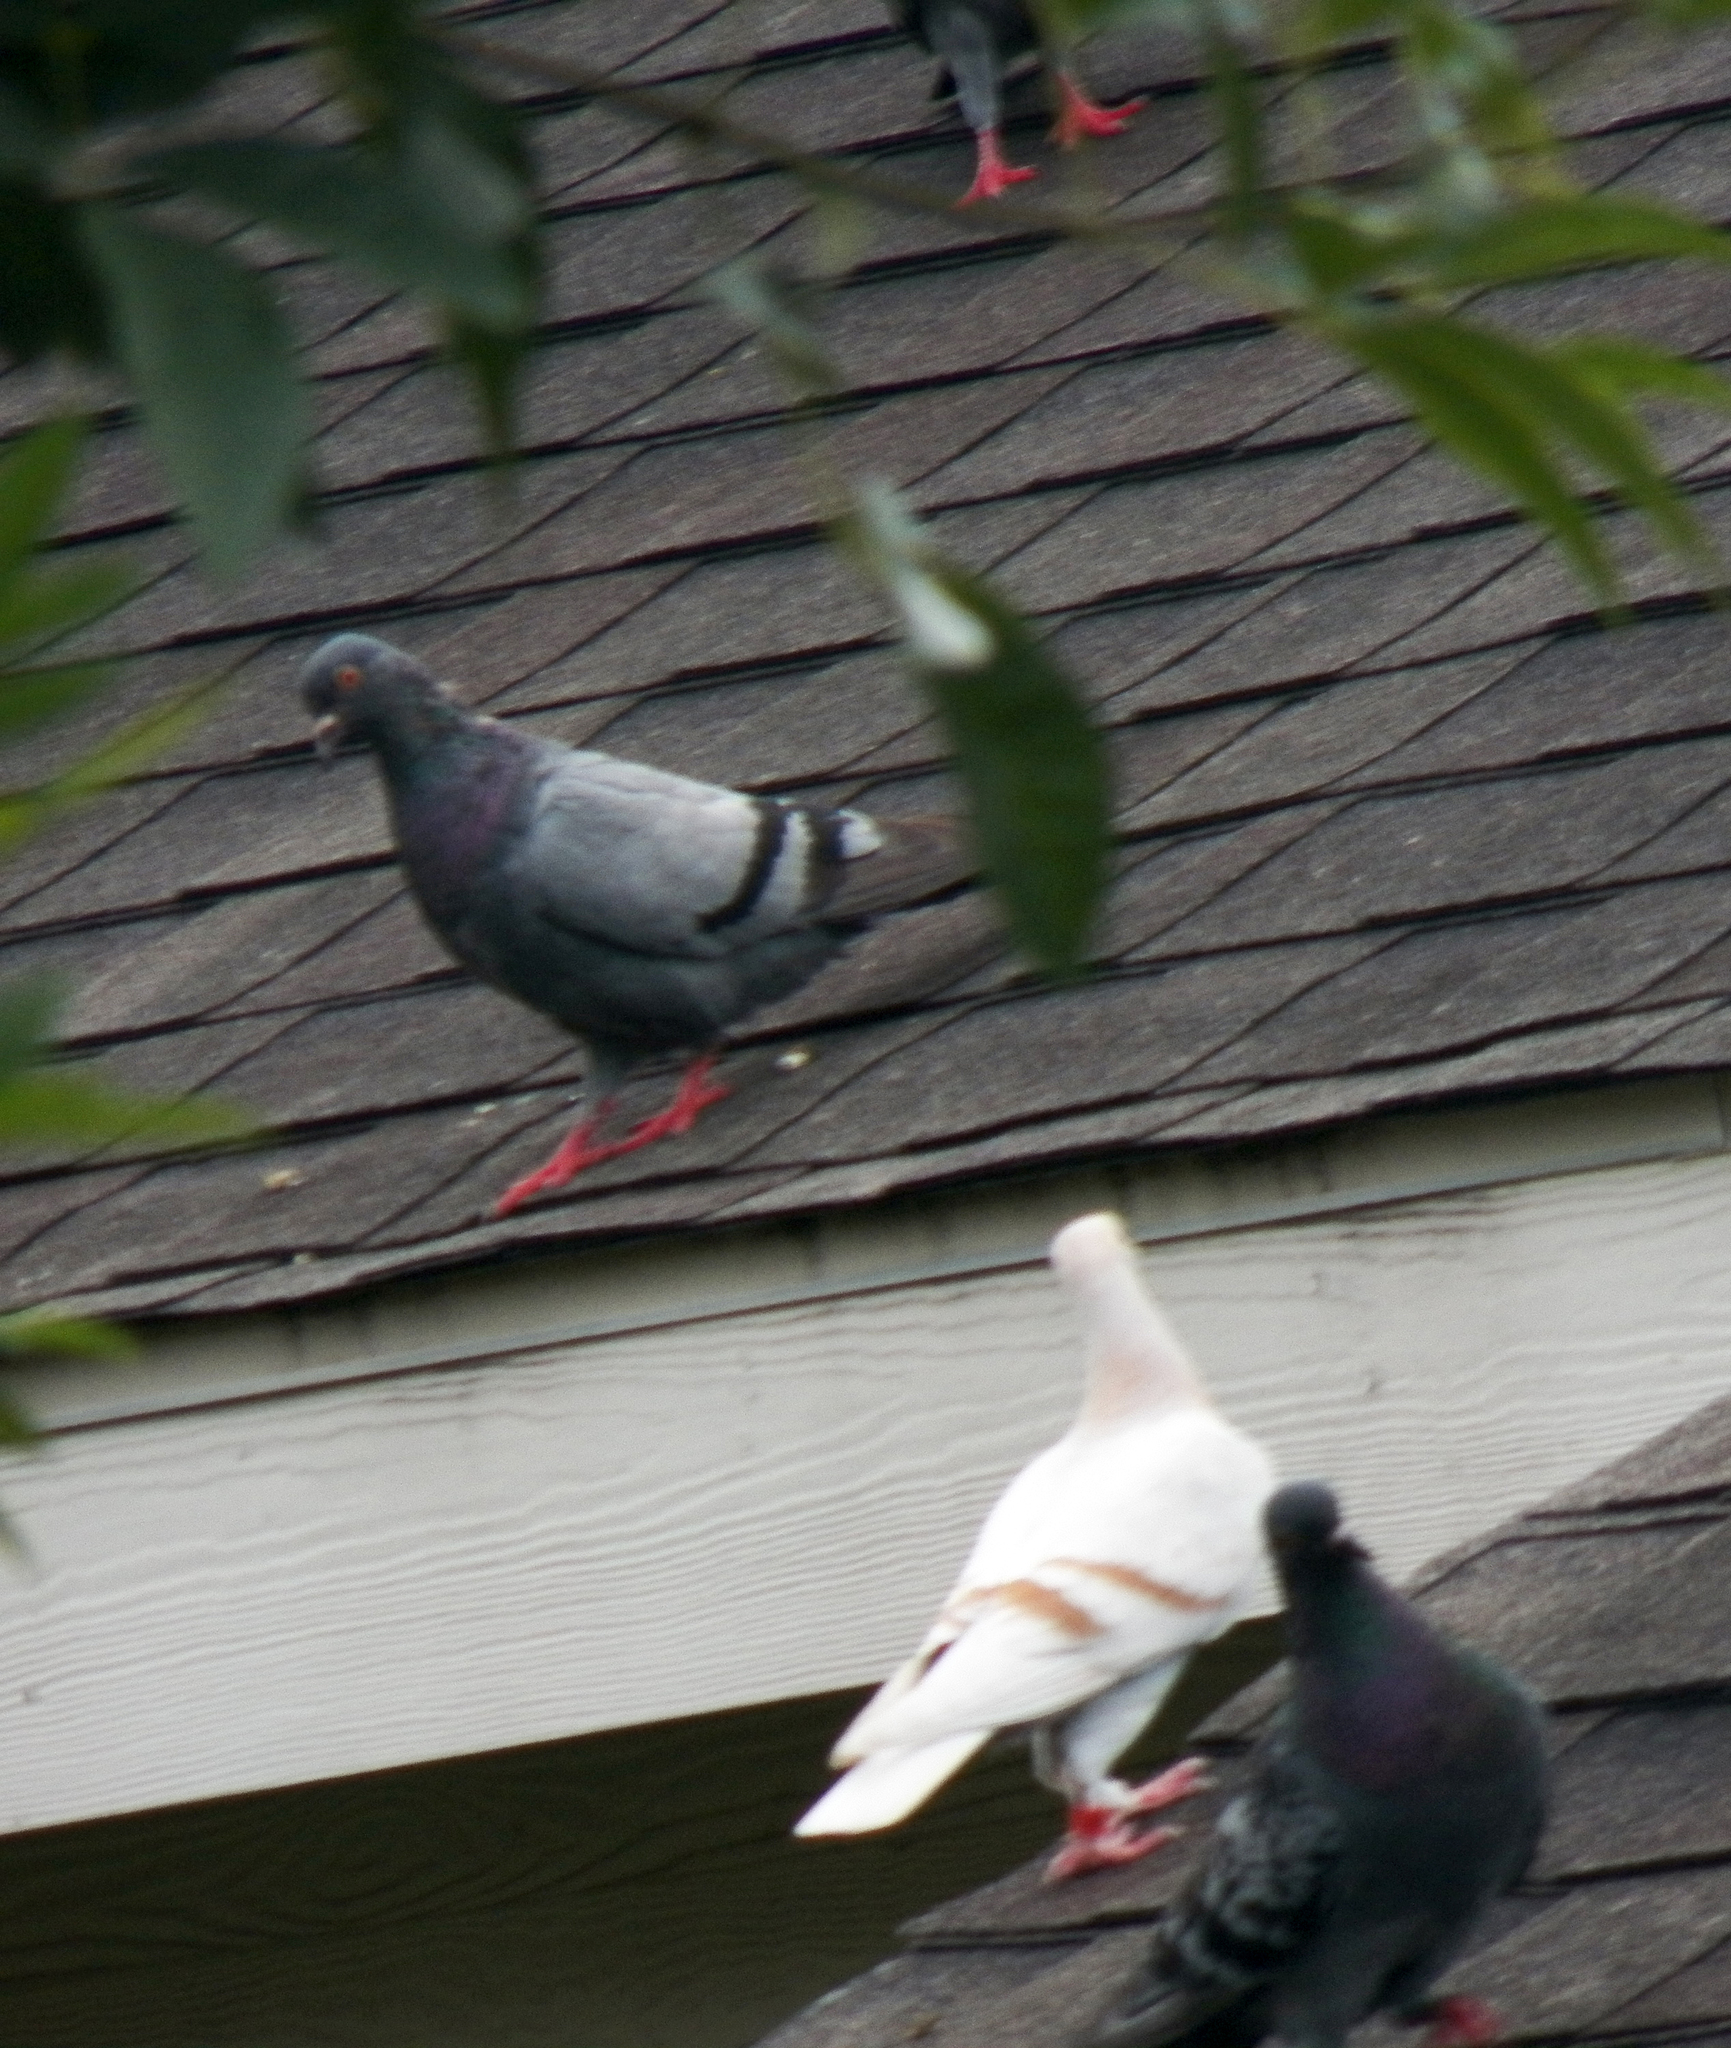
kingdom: Animalia
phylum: Chordata
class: Aves
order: Columbiformes
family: Columbidae
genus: Columba
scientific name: Columba livia
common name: Rock pigeon
